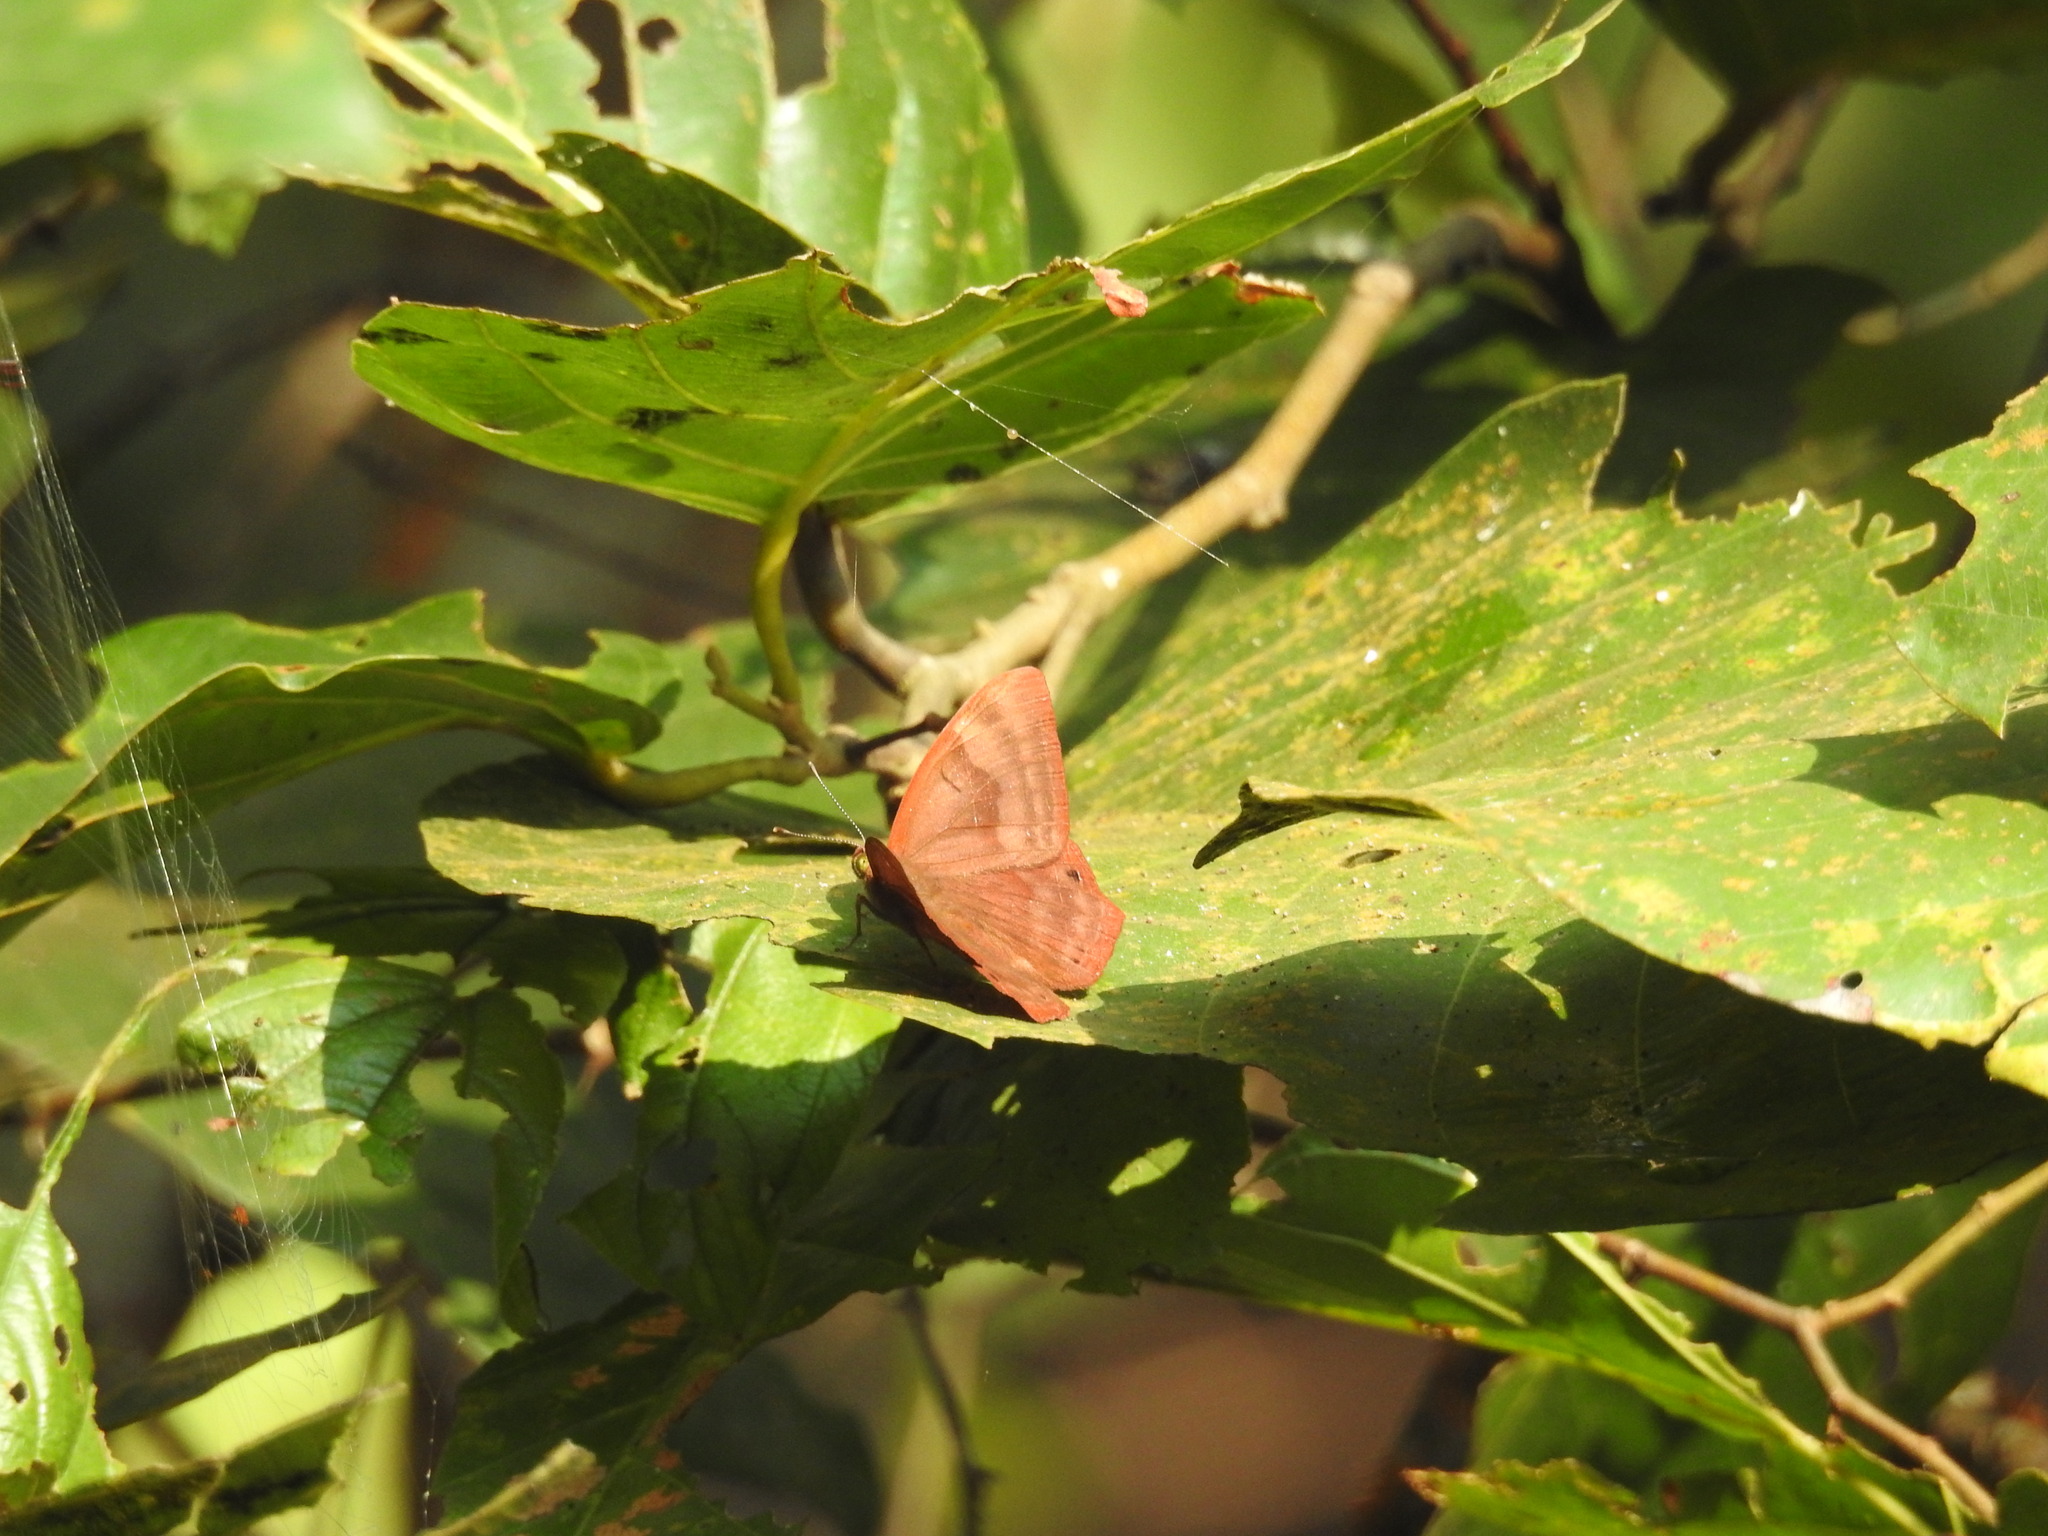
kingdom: Animalia
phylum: Arthropoda
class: Insecta
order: Lepidoptera
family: Lycaenidae
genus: Abisara
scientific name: Abisara bifasciata
